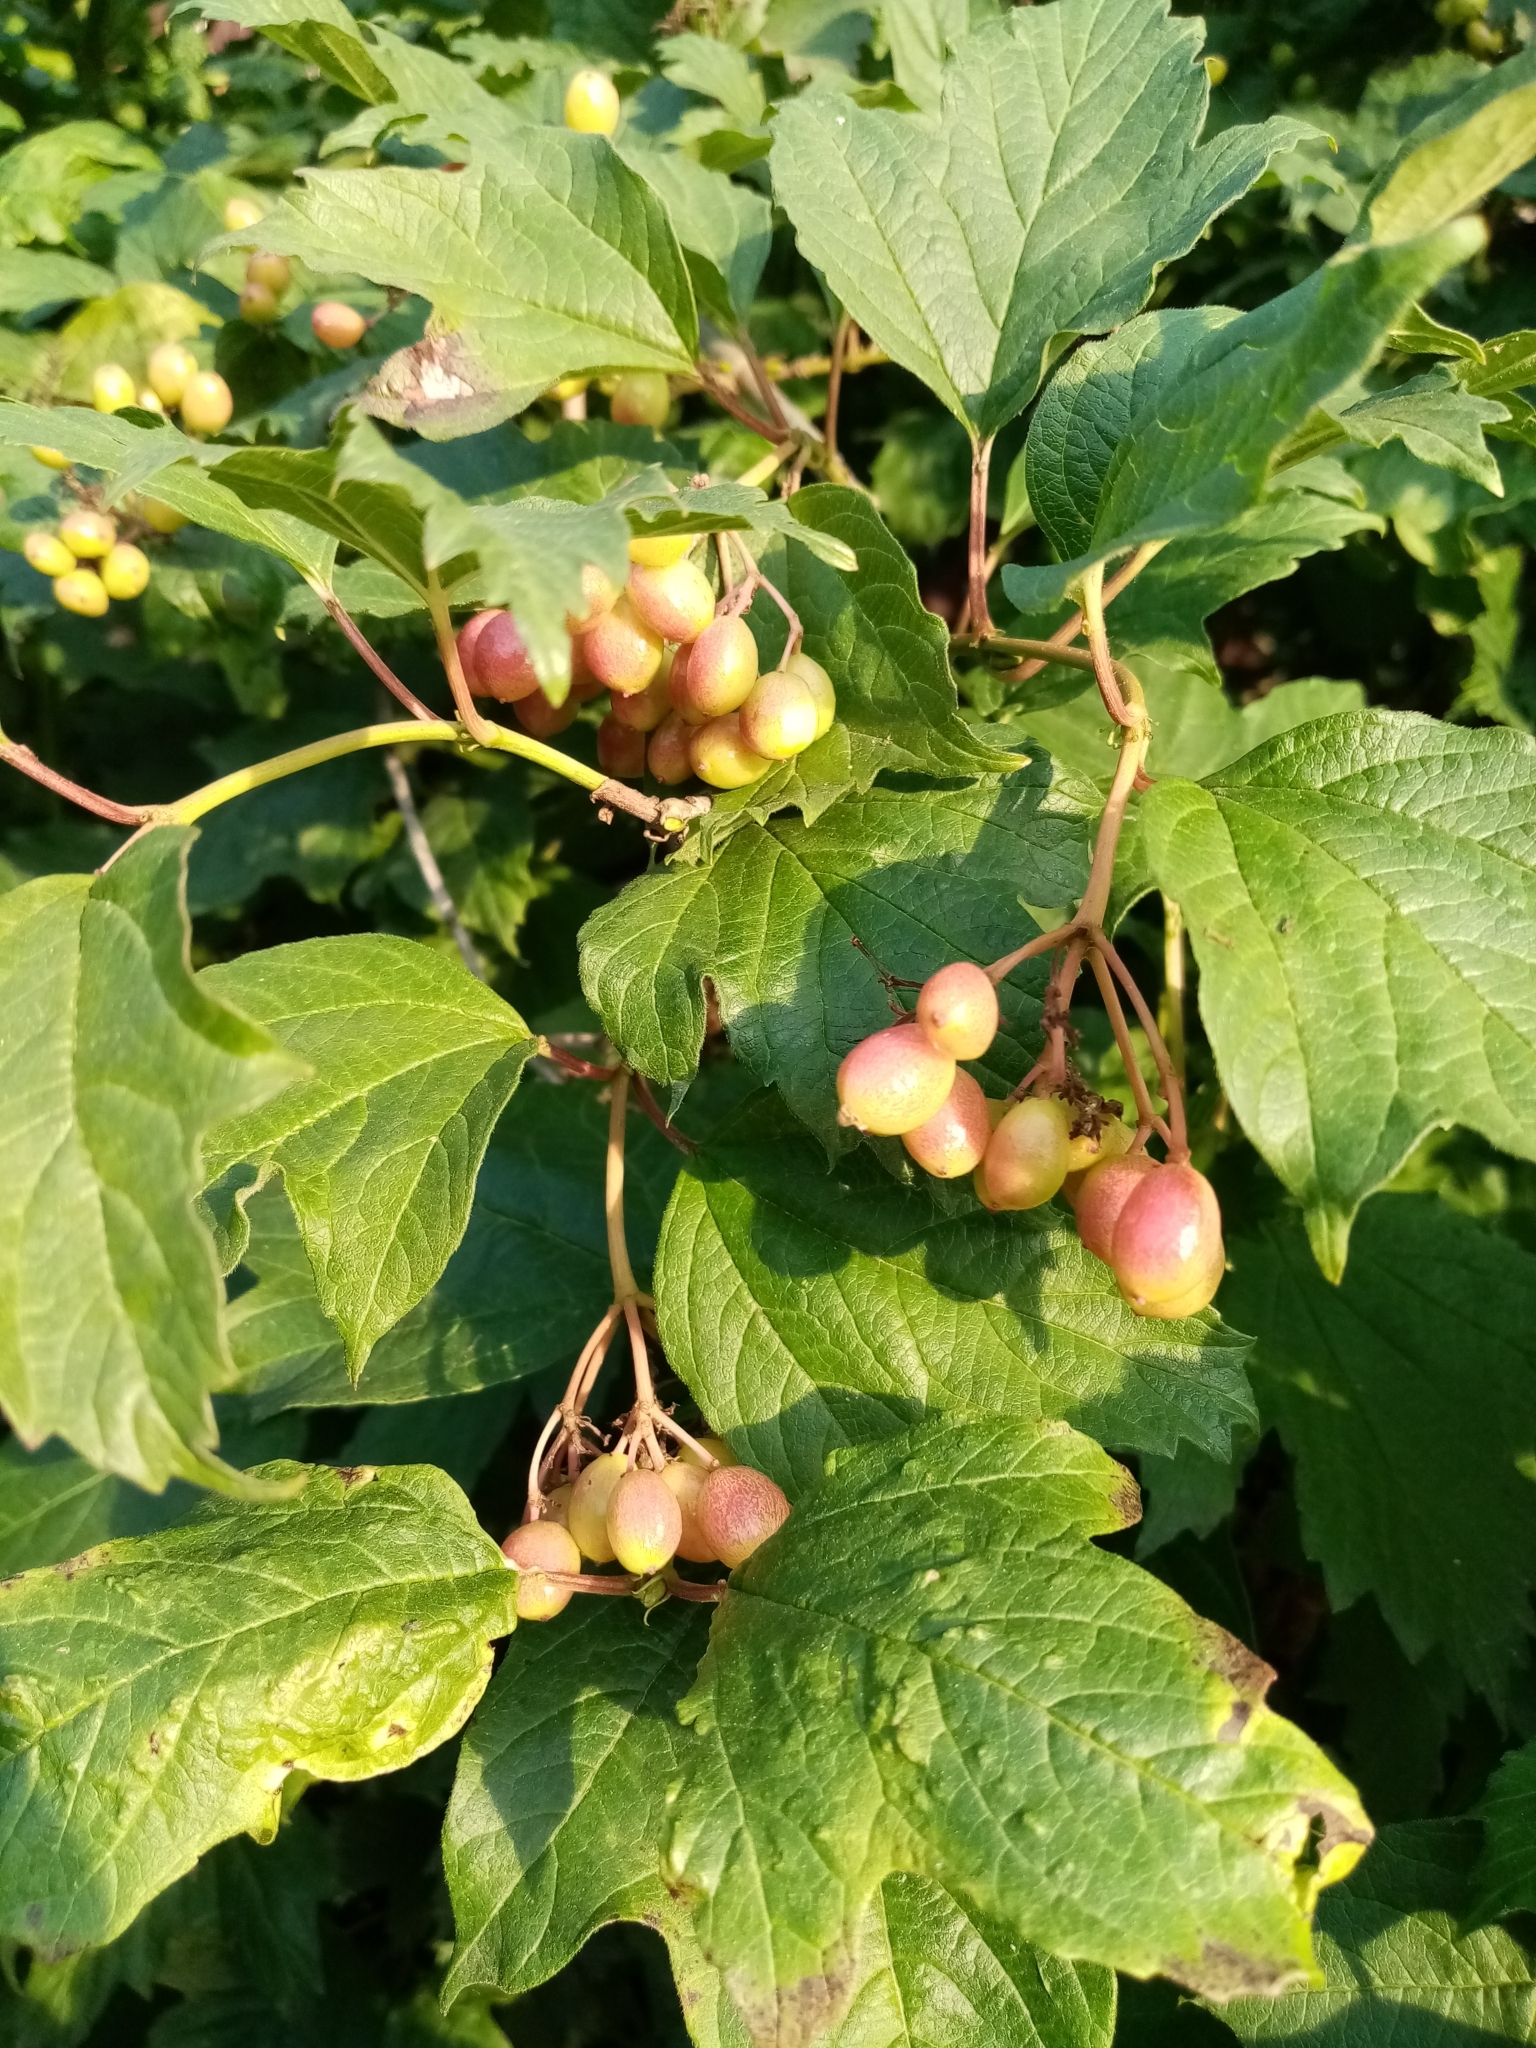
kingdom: Plantae
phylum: Tracheophyta
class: Magnoliopsida
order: Dipsacales
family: Viburnaceae
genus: Viburnum
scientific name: Viburnum opulus
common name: Guelder-rose
